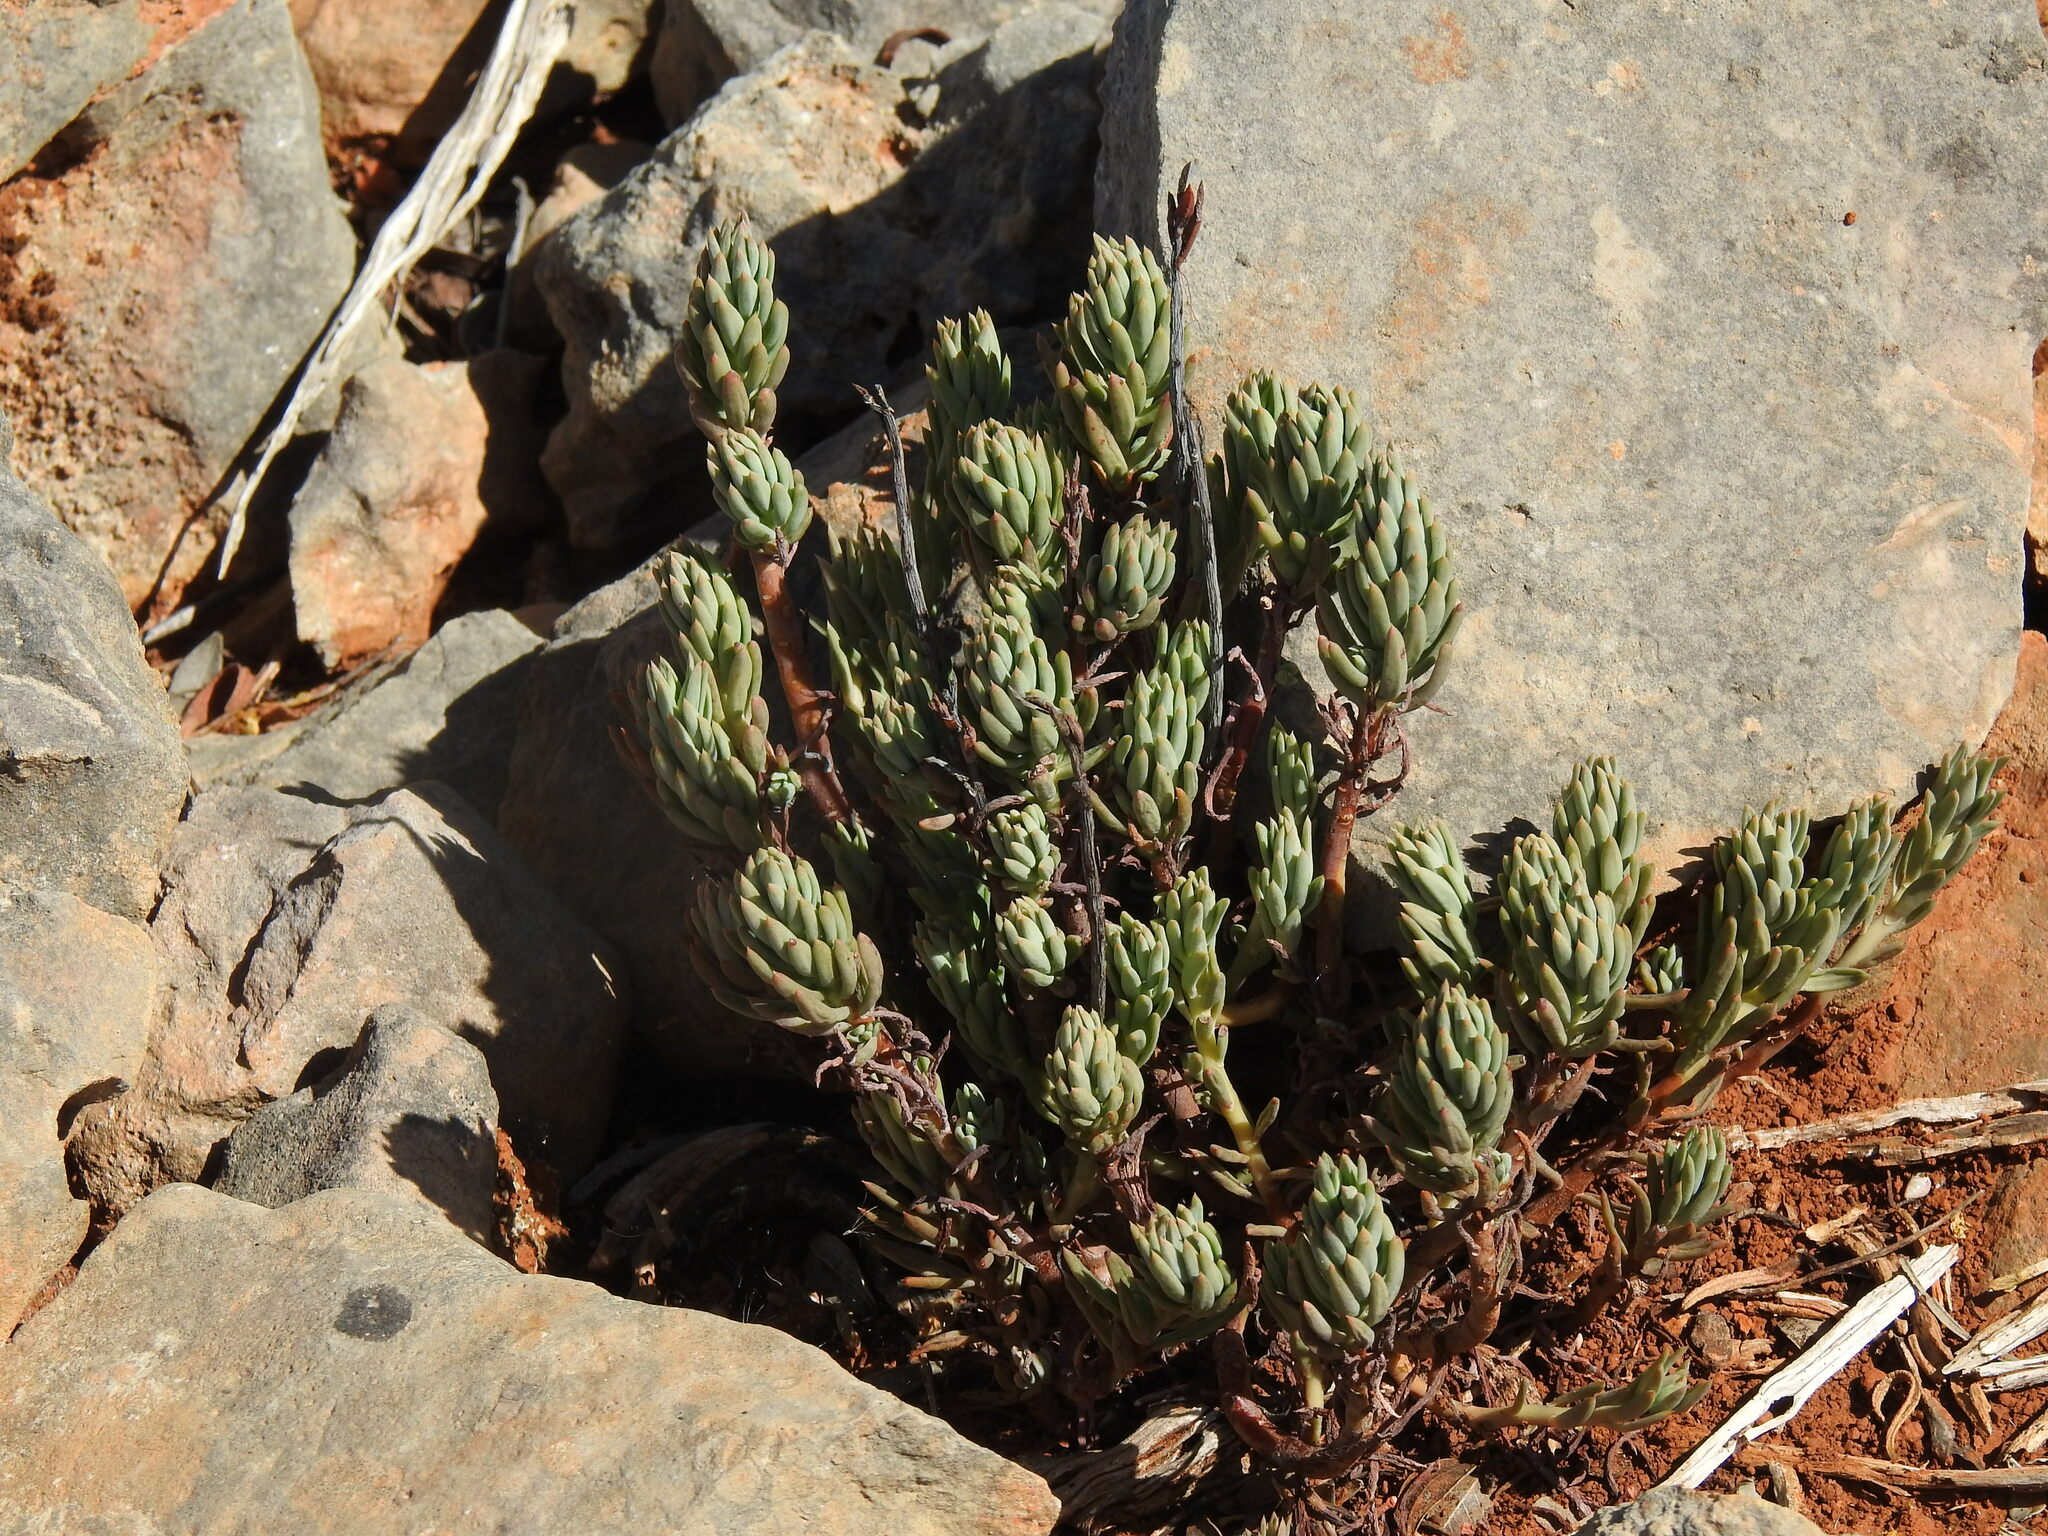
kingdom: Plantae
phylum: Tracheophyta
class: Magnoliopsida
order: Saxifragales
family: Crassulaceae
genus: Petrosedum
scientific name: Petrosedum sediforme
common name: Pale stonecrop
